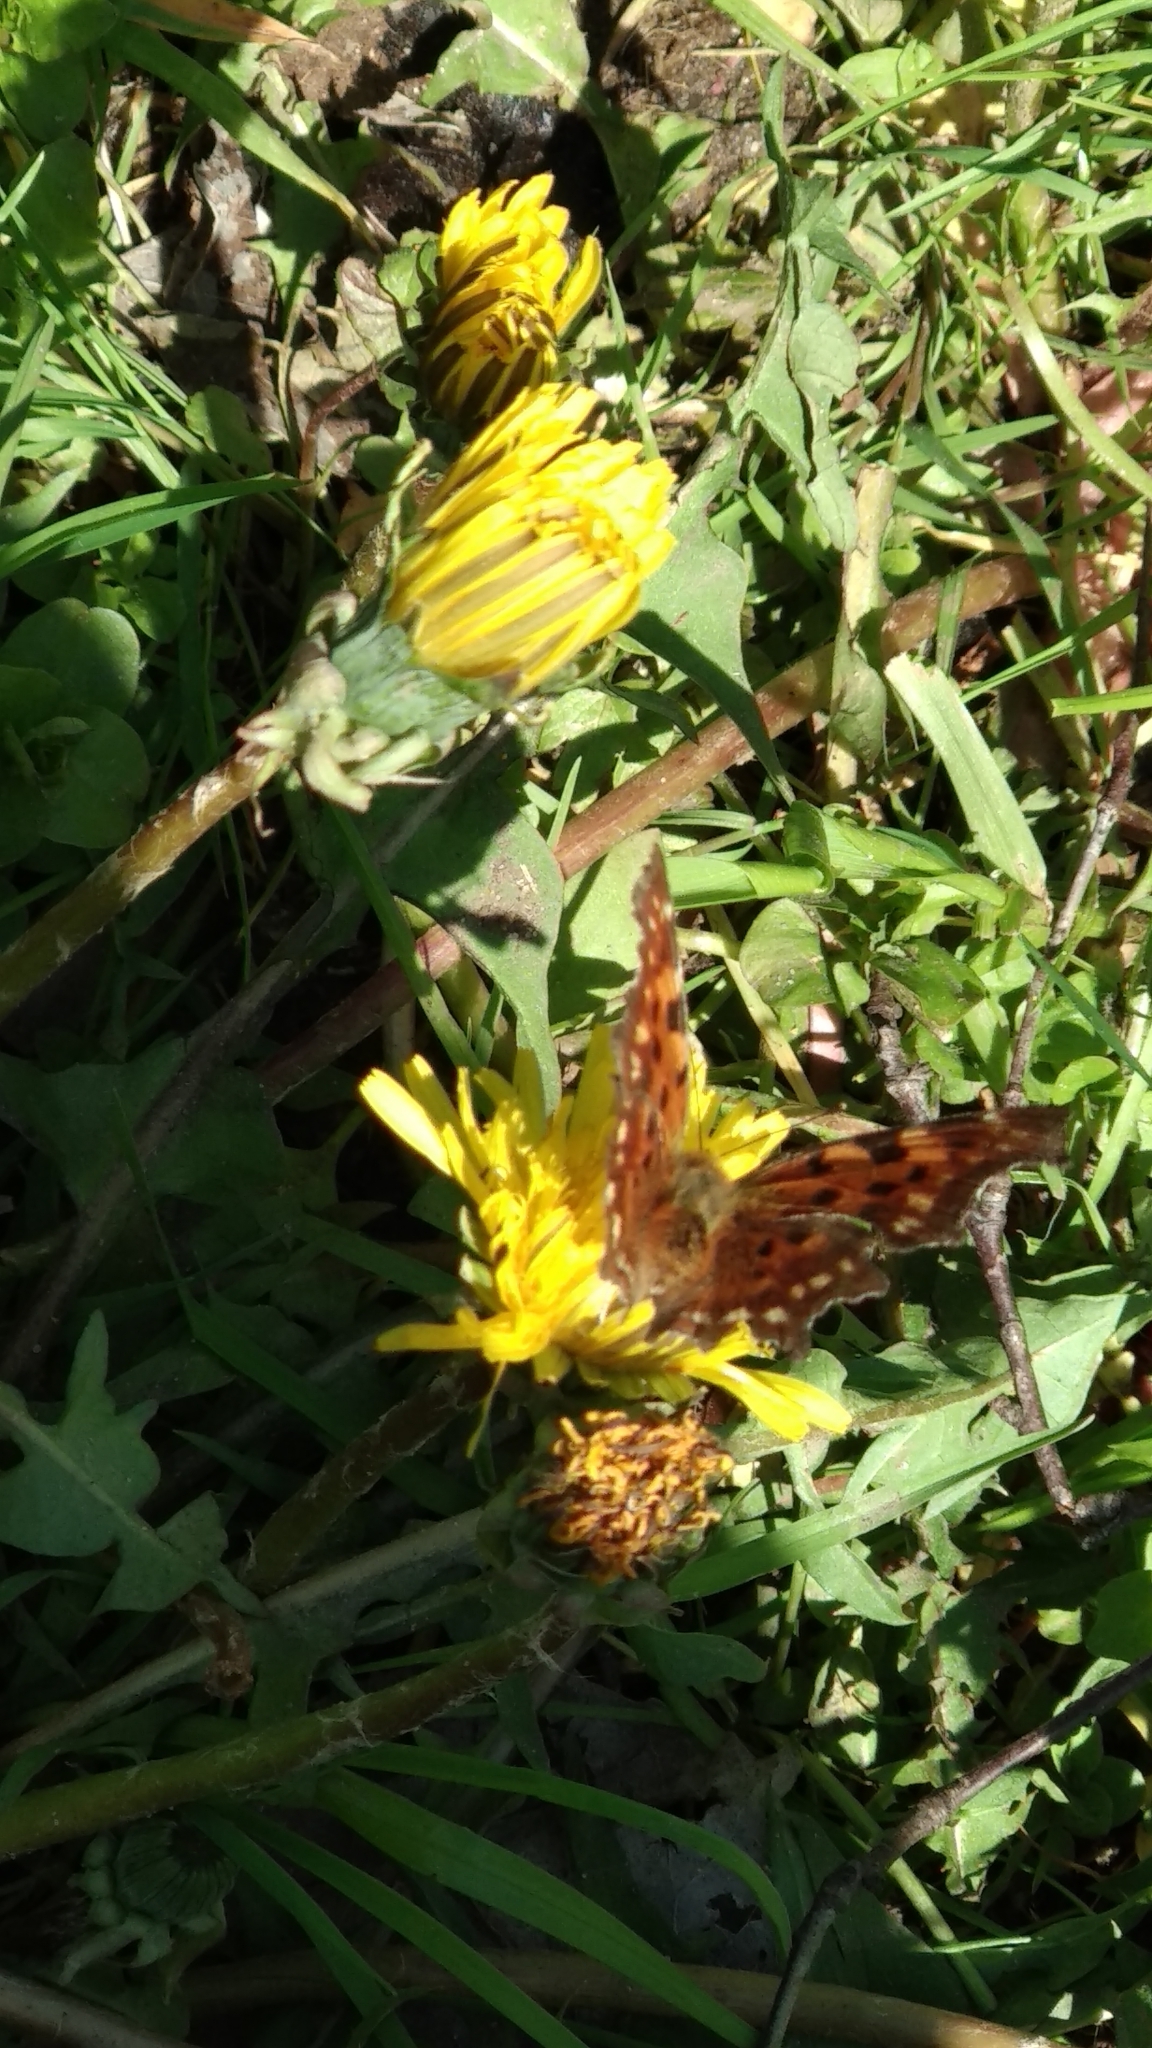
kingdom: Animalia
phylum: Arthropoda
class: Insecta
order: Lepidoptera
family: Nymphalidae
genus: Polygonia
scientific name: Polygonia c-album
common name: Comma
